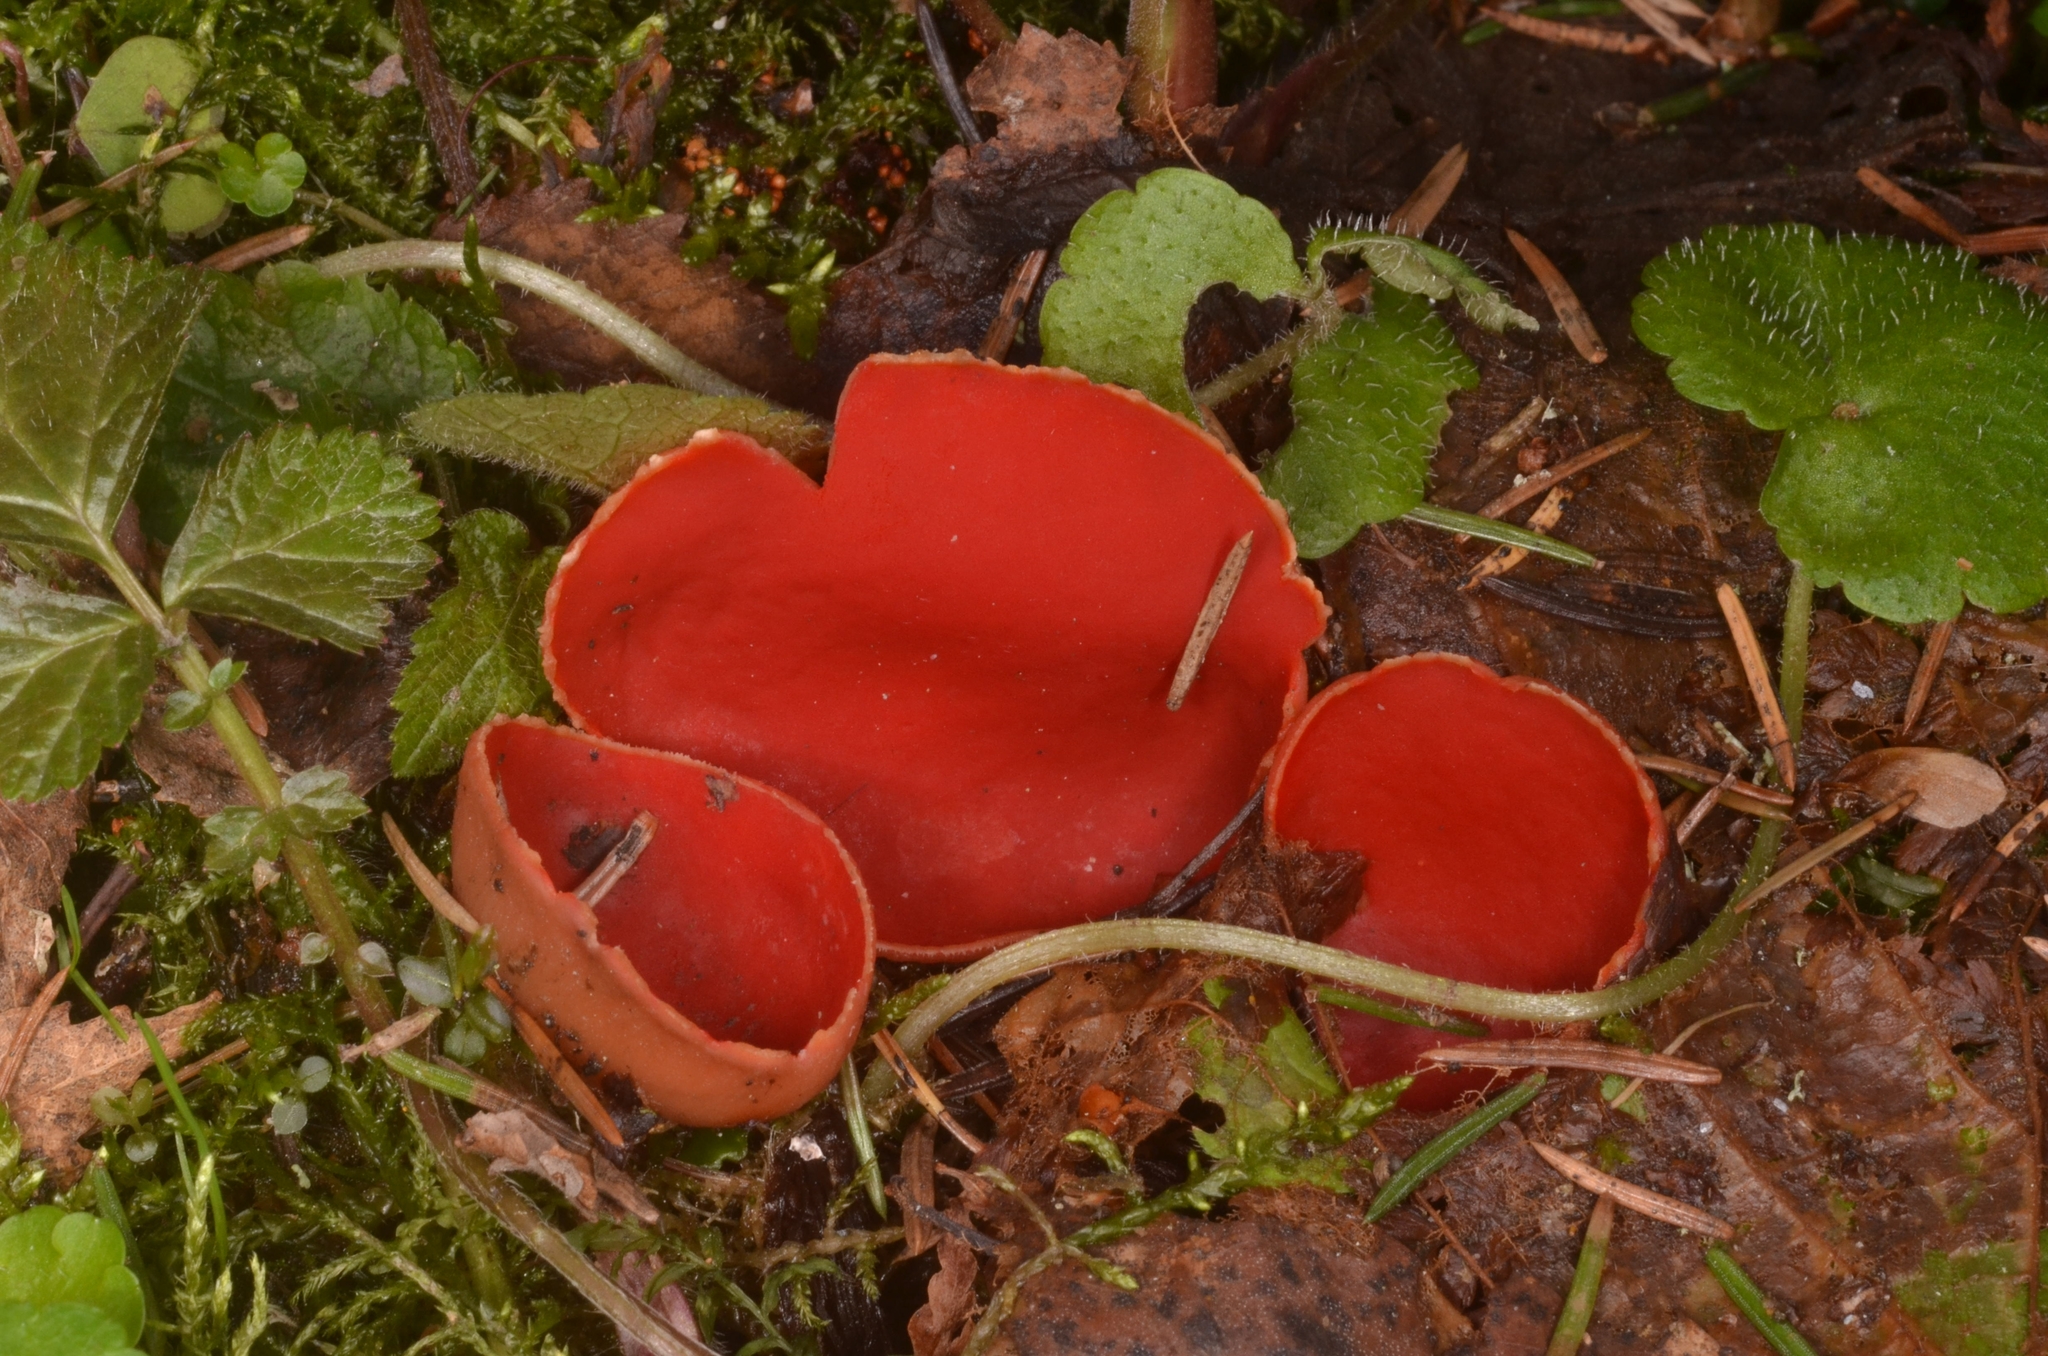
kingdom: Fungi
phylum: Ascomycota
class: Pezizomycetes
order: Pezizales
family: Sarcoscyphaceae
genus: Sarcoscypha
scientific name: Sarcoscypha austriaca
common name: Scarlet elfcup
